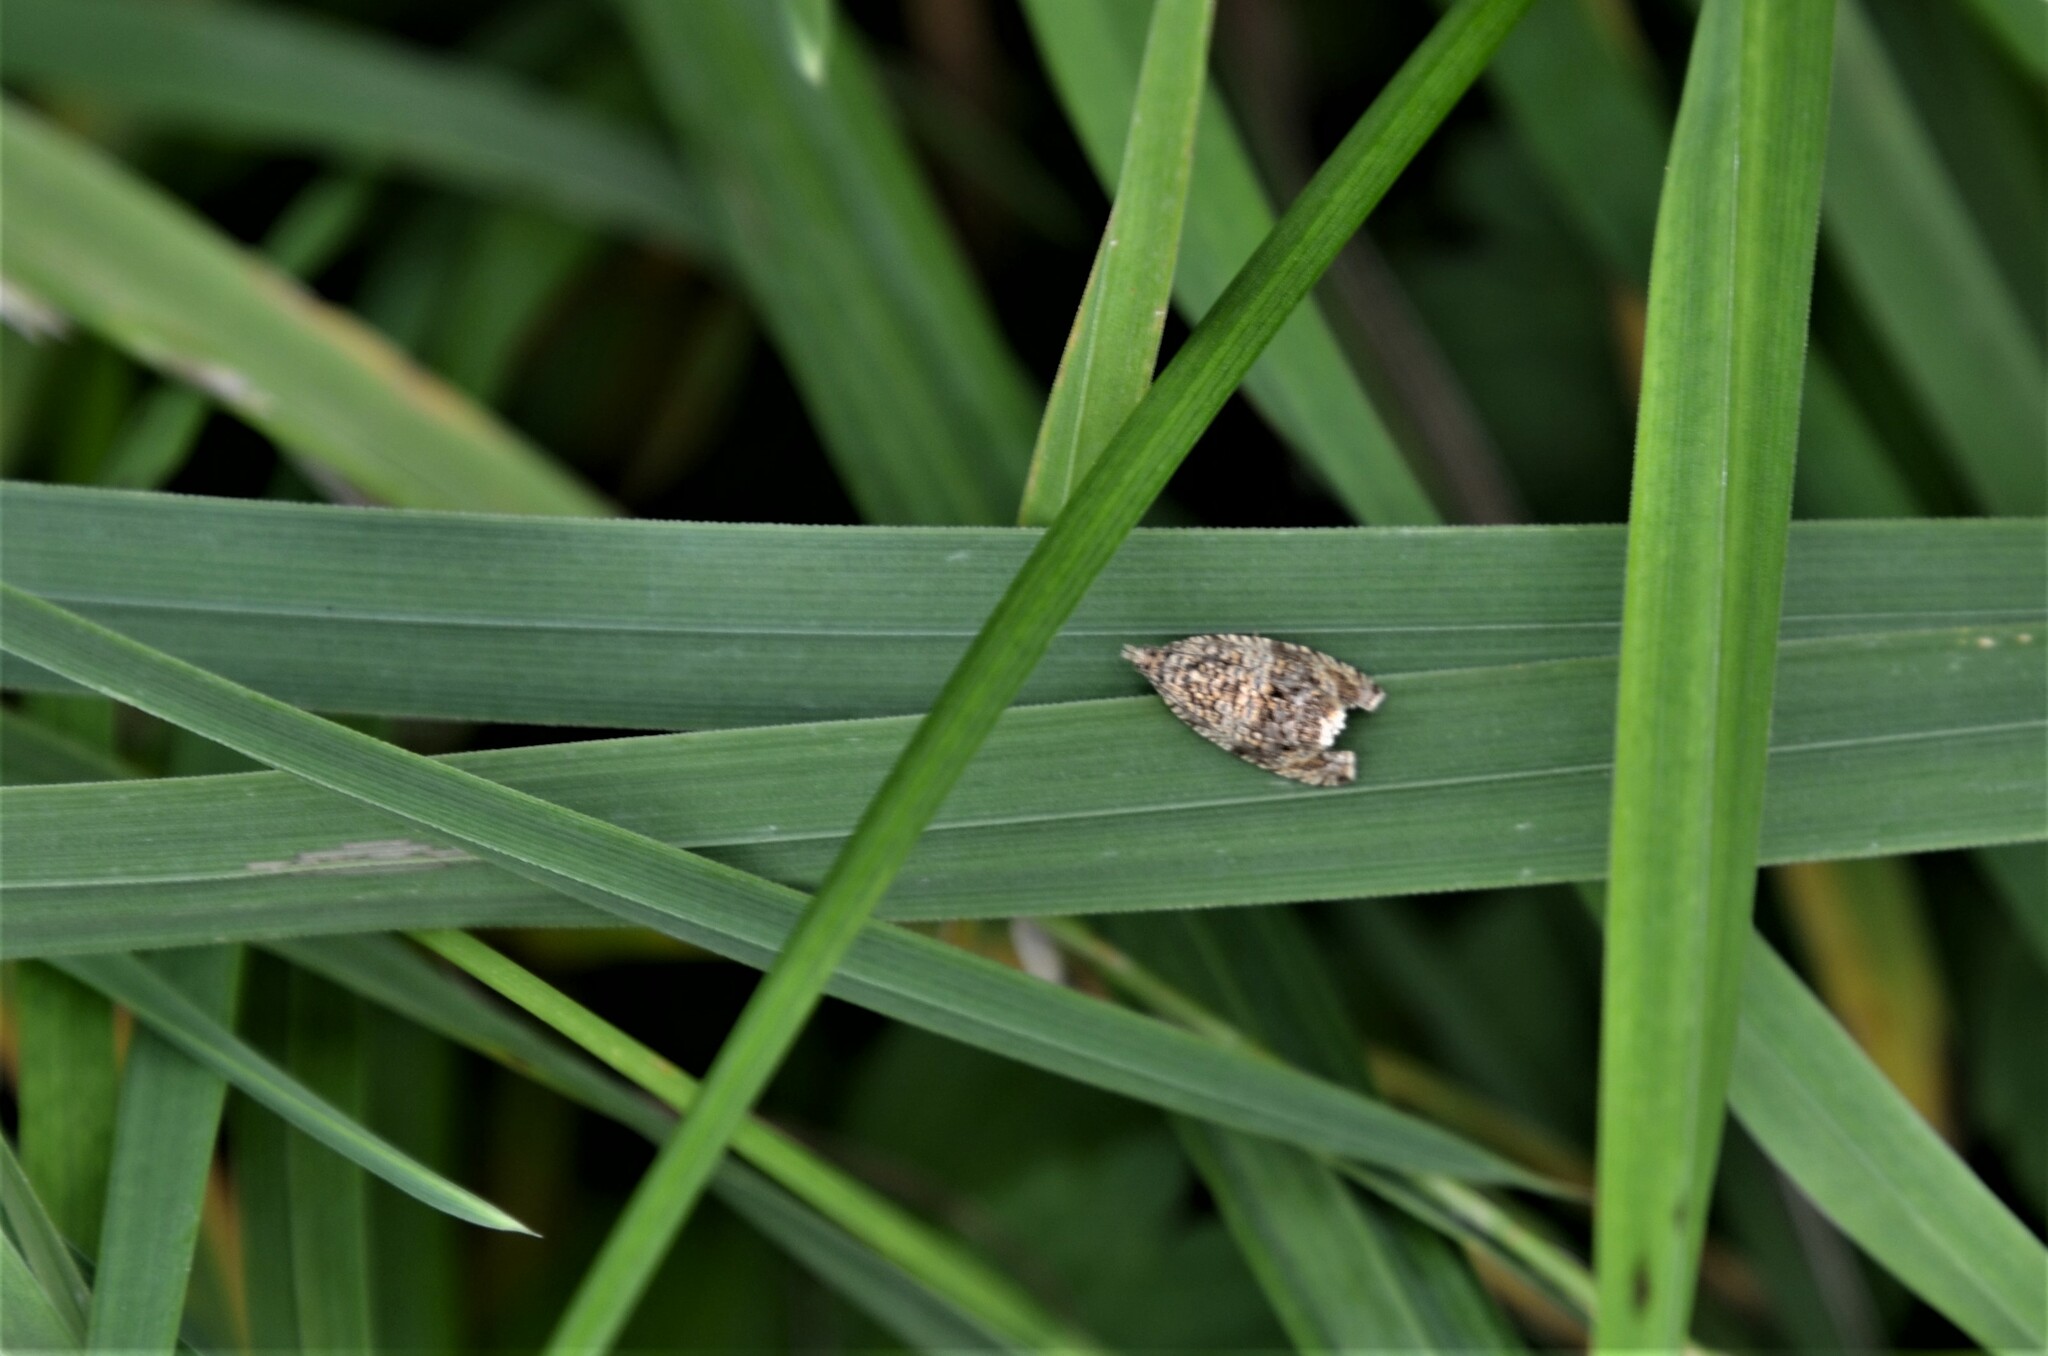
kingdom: Animalia
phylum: Arthropoda
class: Insecta
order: Lepidoptera
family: Tortricidae
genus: Syricoris
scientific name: Syricoris lacunana
